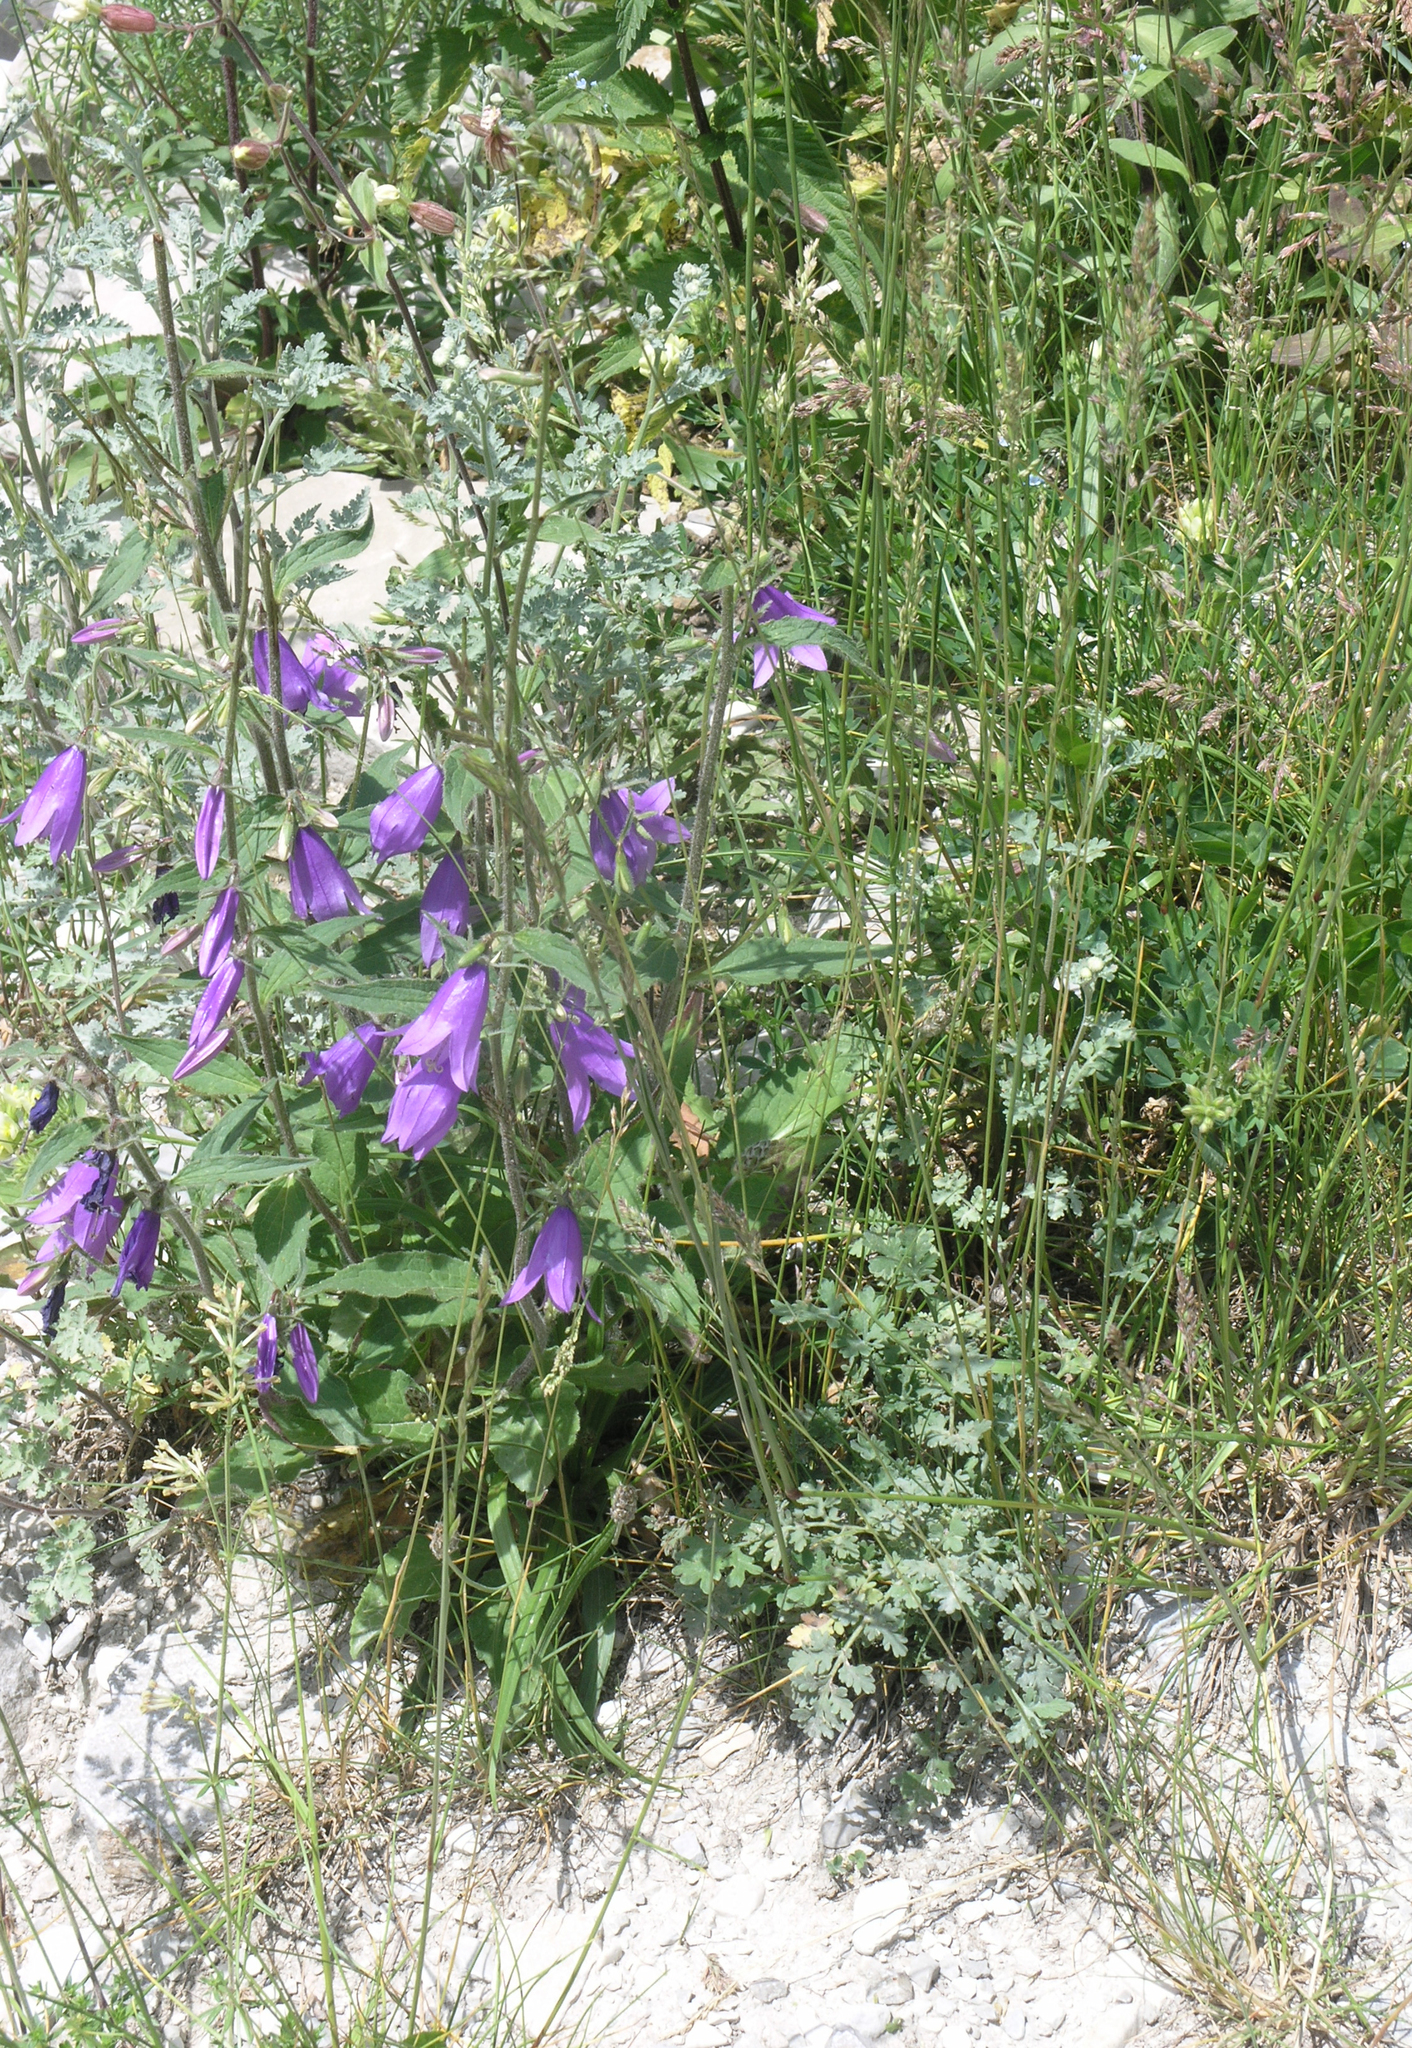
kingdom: Plantae
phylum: Tracheophyta
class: Magnoliopsida
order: Asterales
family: Campanulaceae
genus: Campanula
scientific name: Campanula rapunculoides
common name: Creeping bellflower
